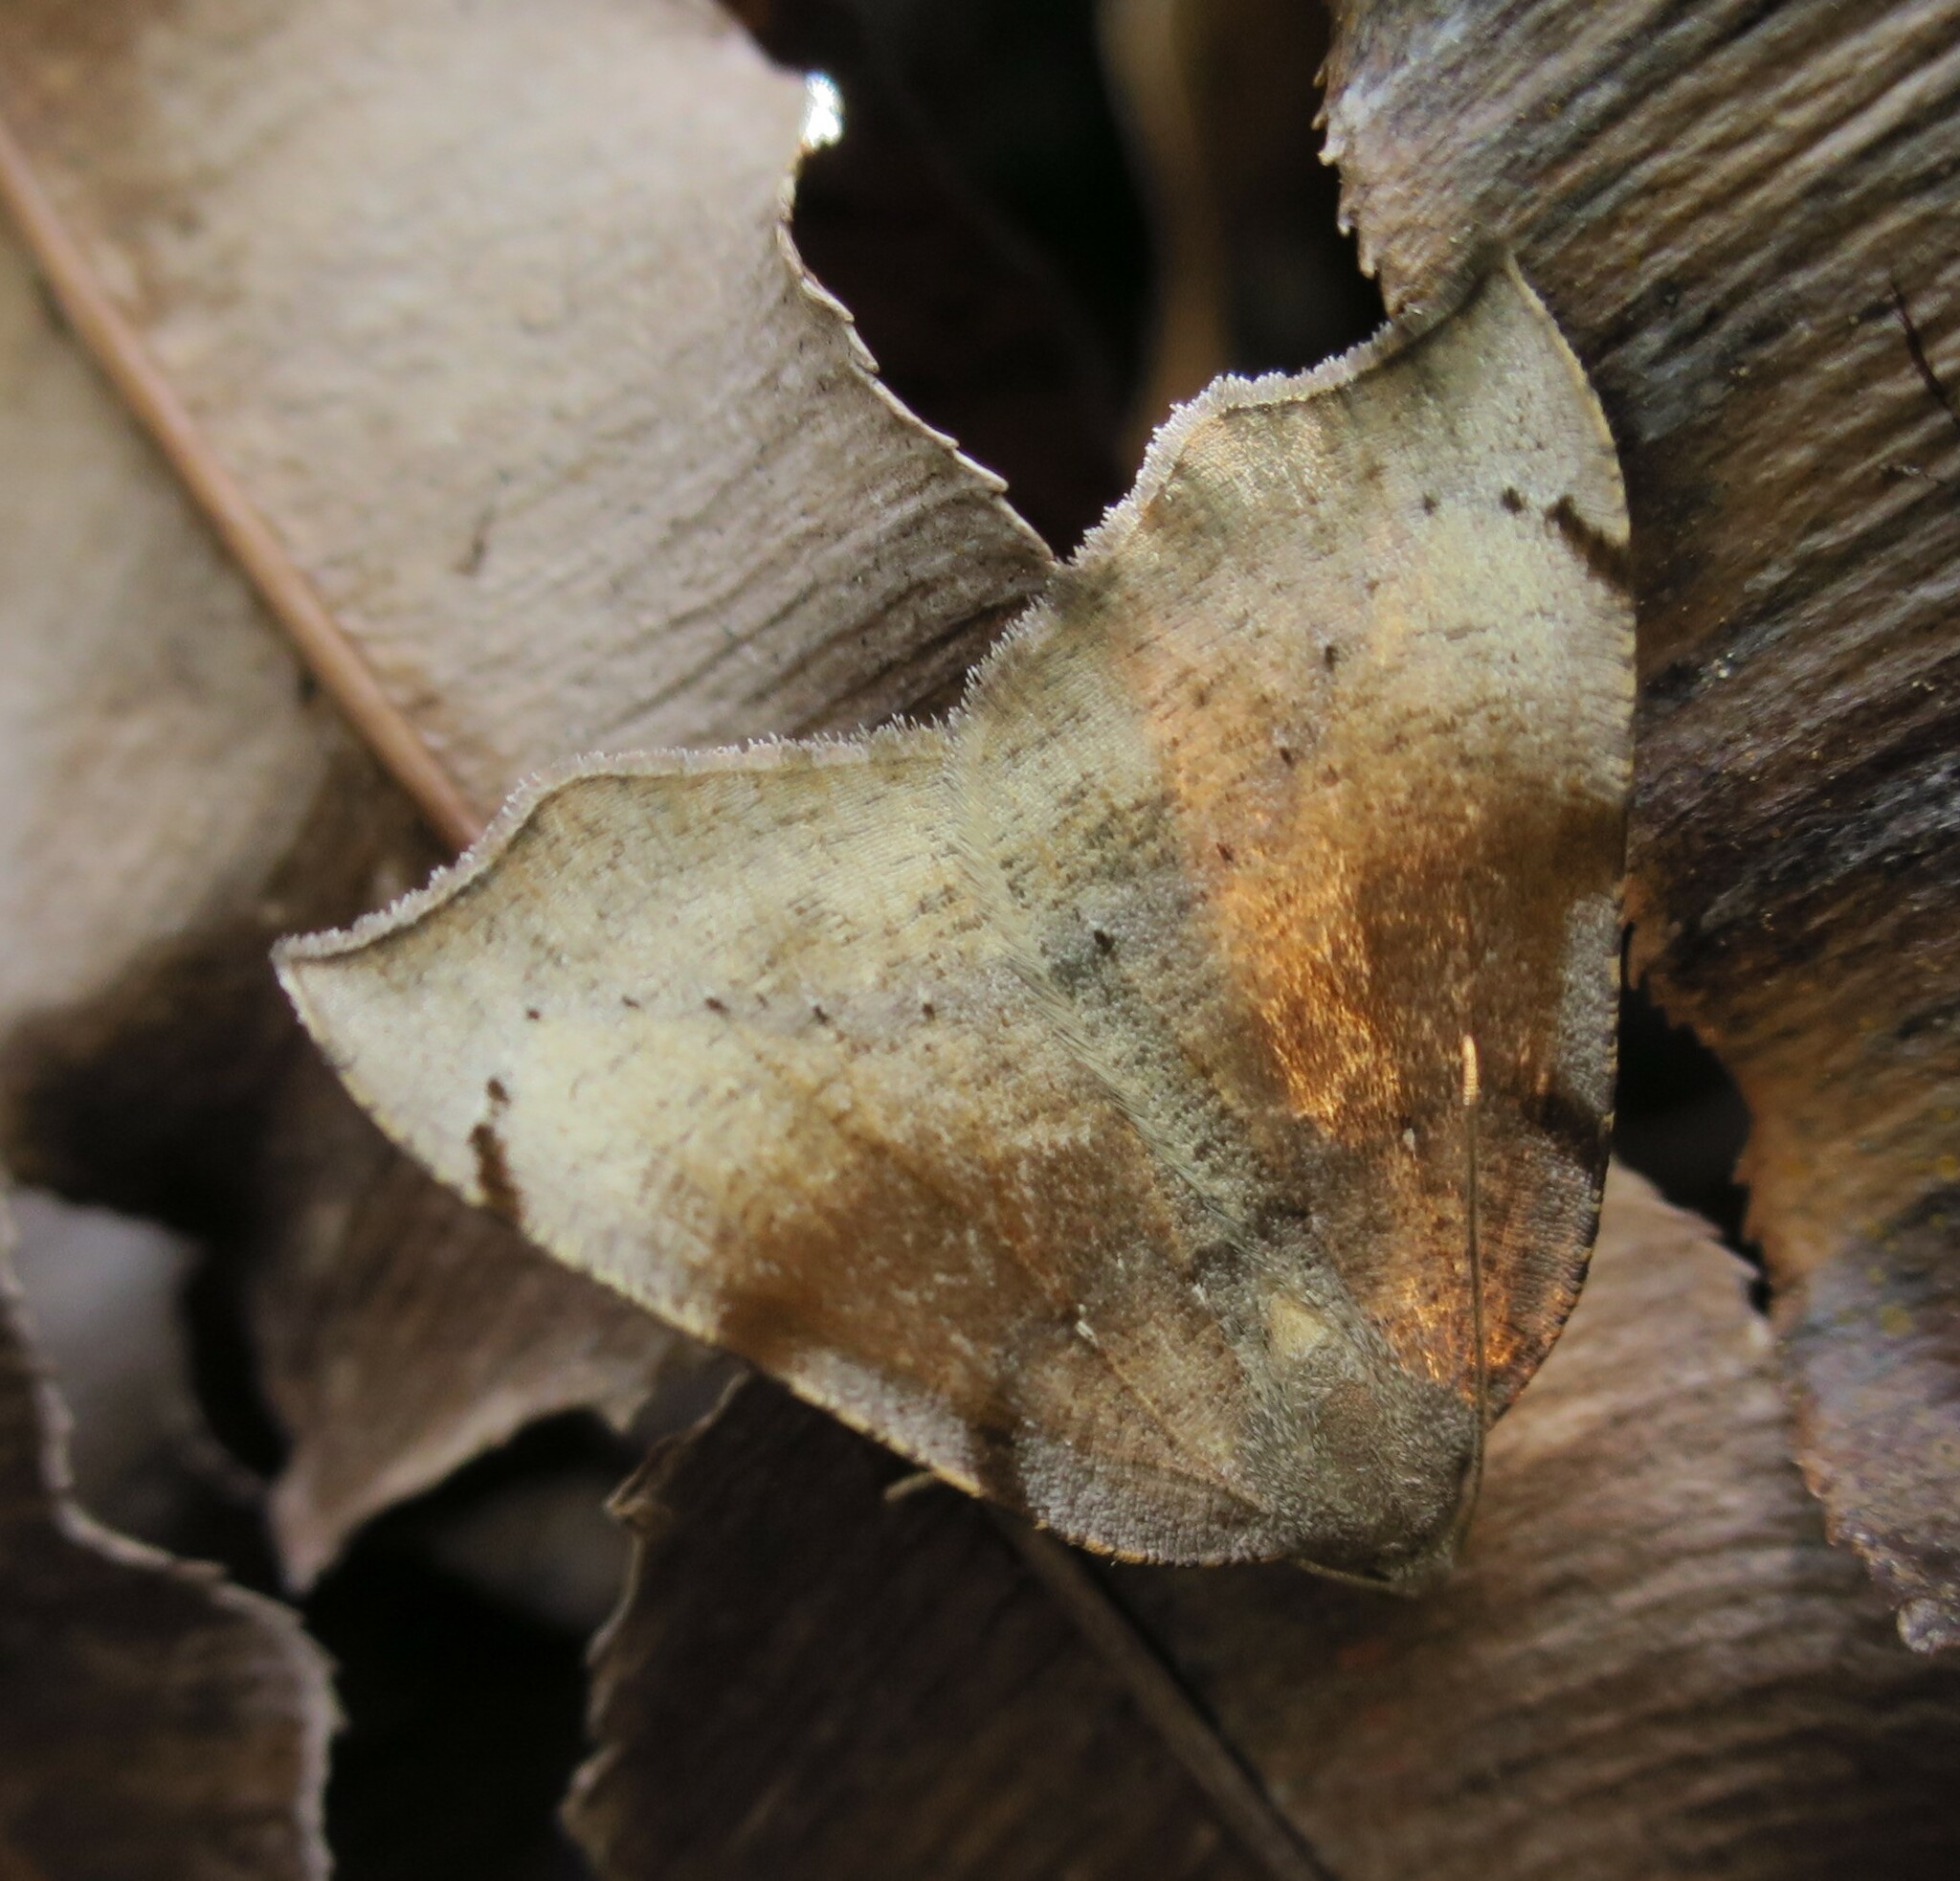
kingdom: Animalia
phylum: Arthropoda
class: Insecta
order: Lepidoptera
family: Geometridae
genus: Sestra
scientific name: Sestra flexata
